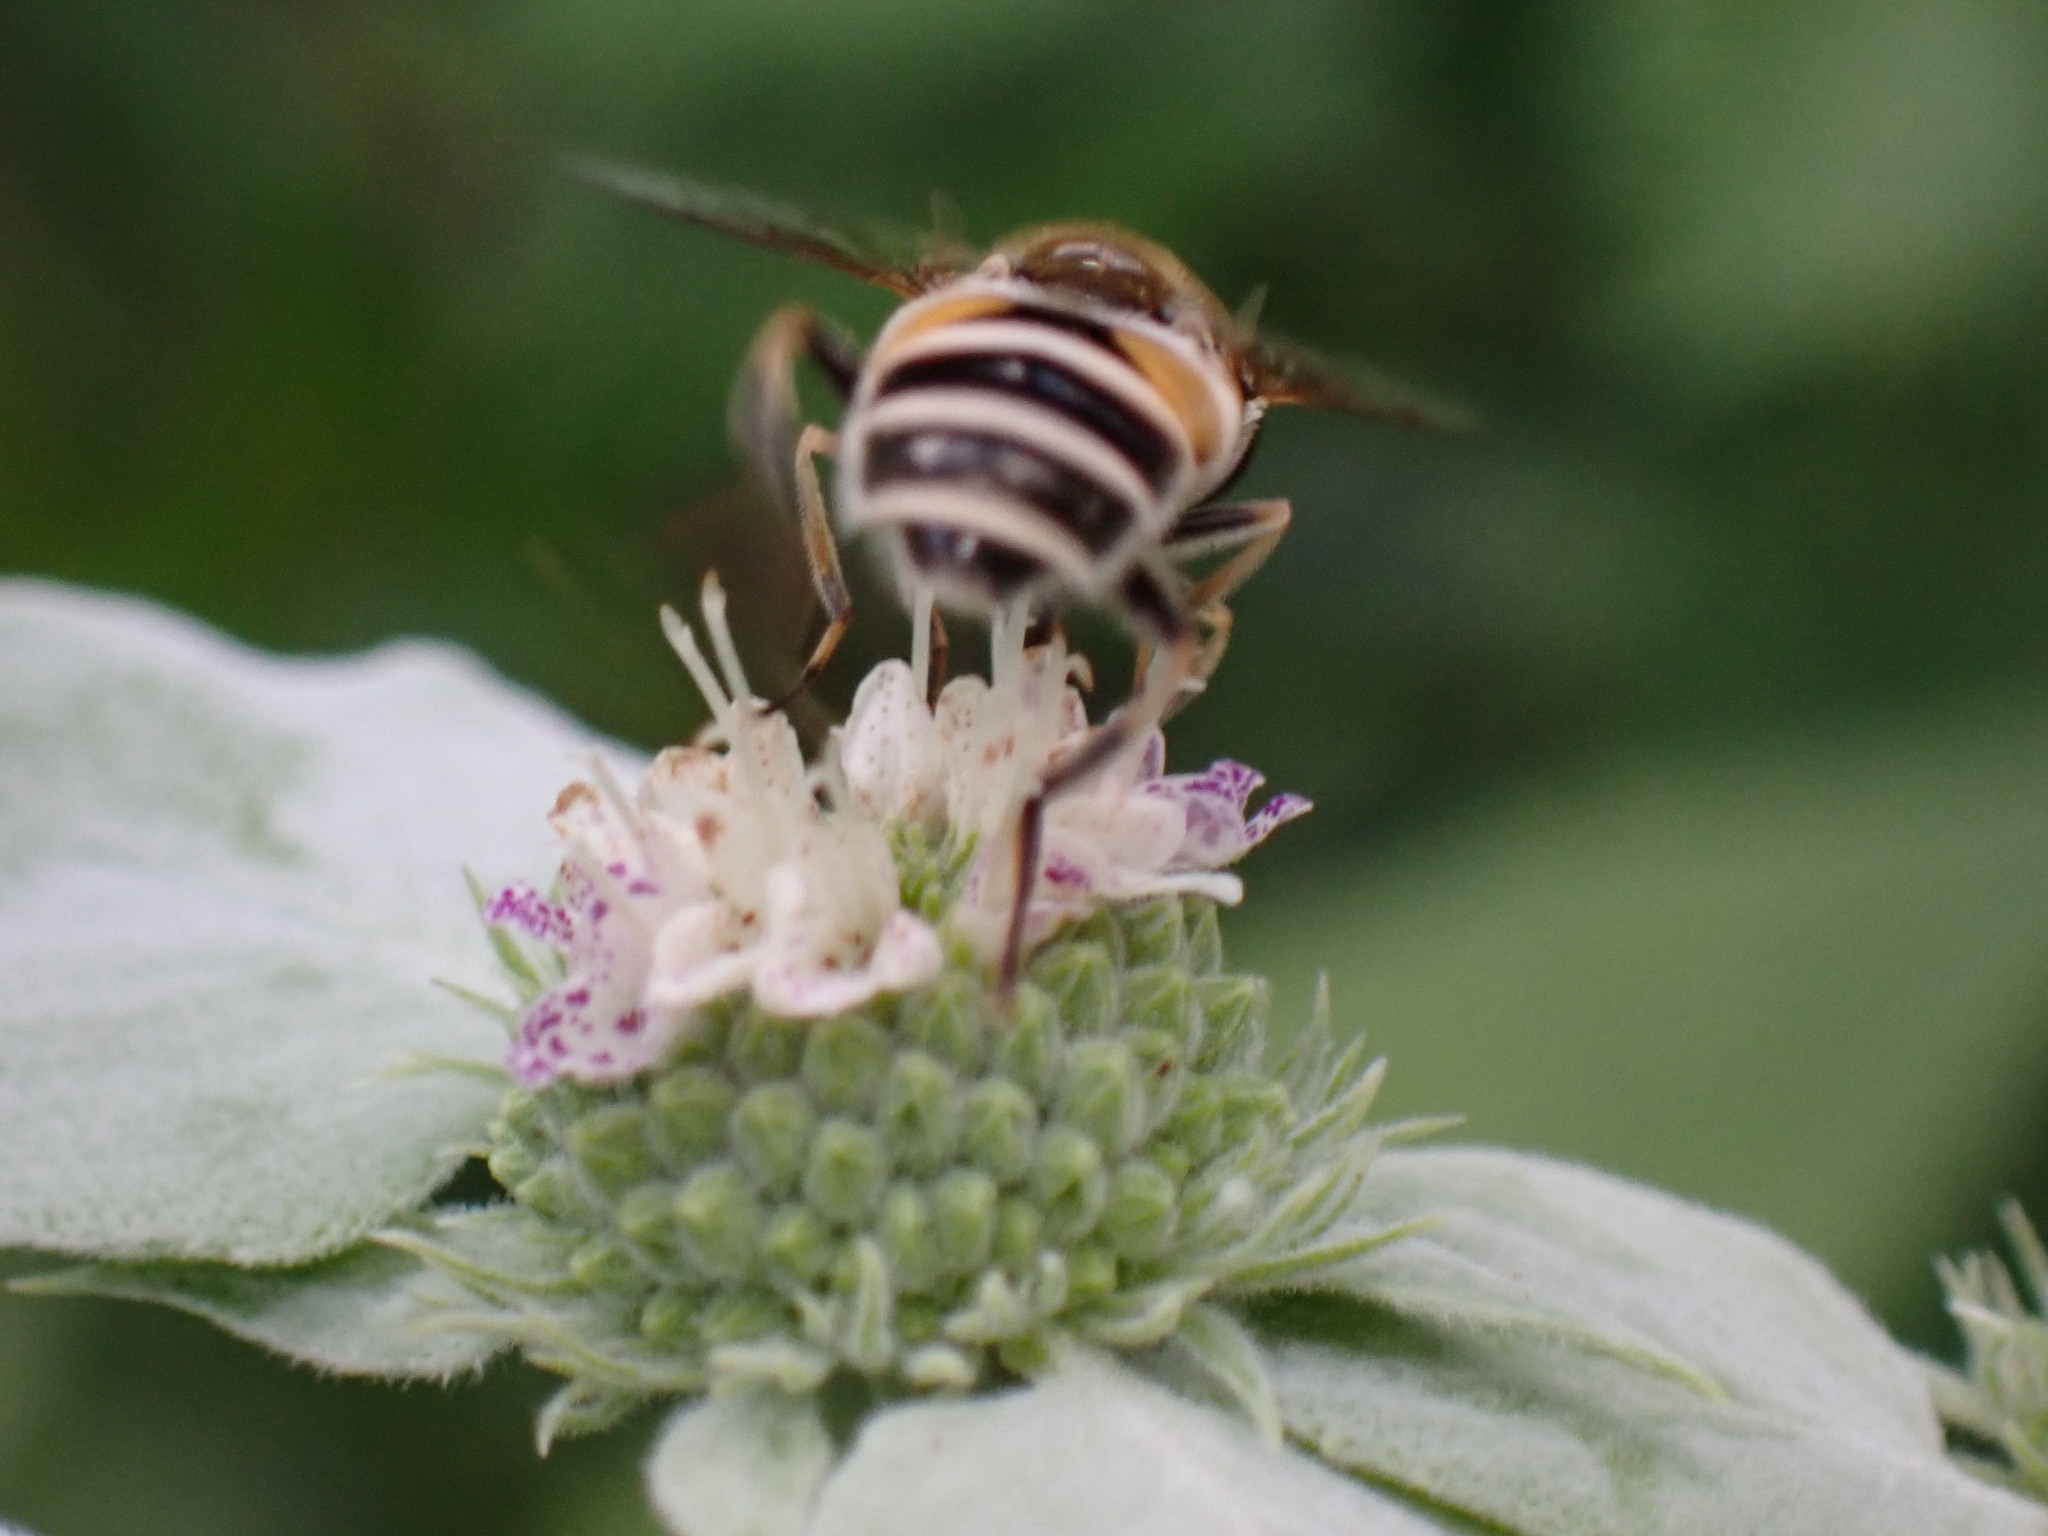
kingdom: Animalia
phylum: Arthropoda
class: Insecta
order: Diptera
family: Syrphidae
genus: Eristalis
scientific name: Eristalis arbustorum
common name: Hover fly
